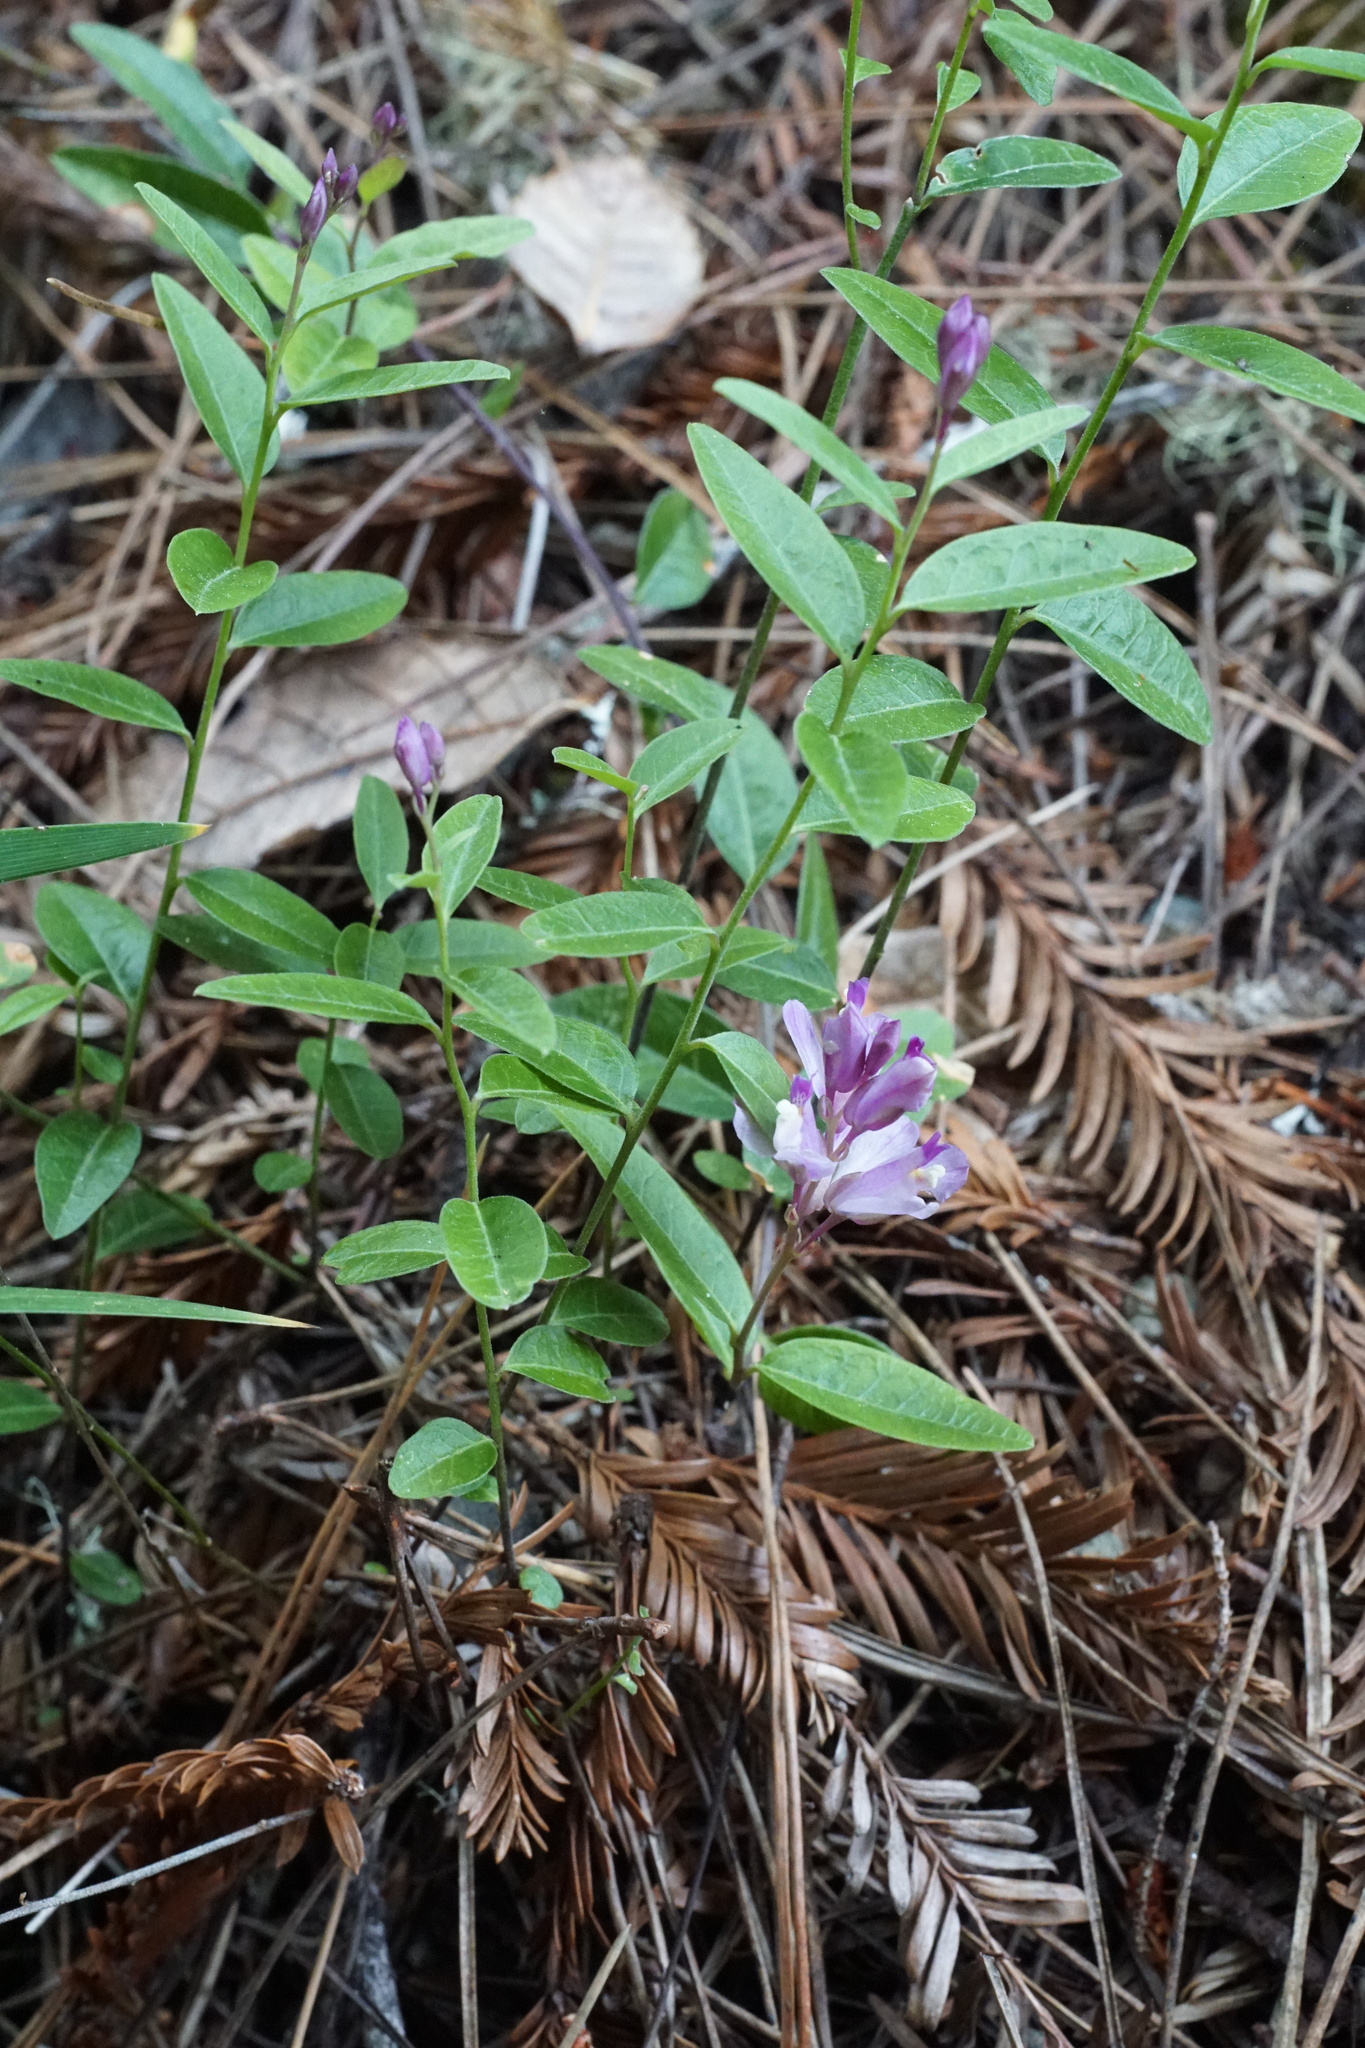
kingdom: Plantae
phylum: Tracheophyta
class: Magnoliopsida
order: Fabales
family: Polygalaceae
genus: Rhinotropis
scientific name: Rhinotropis californica
